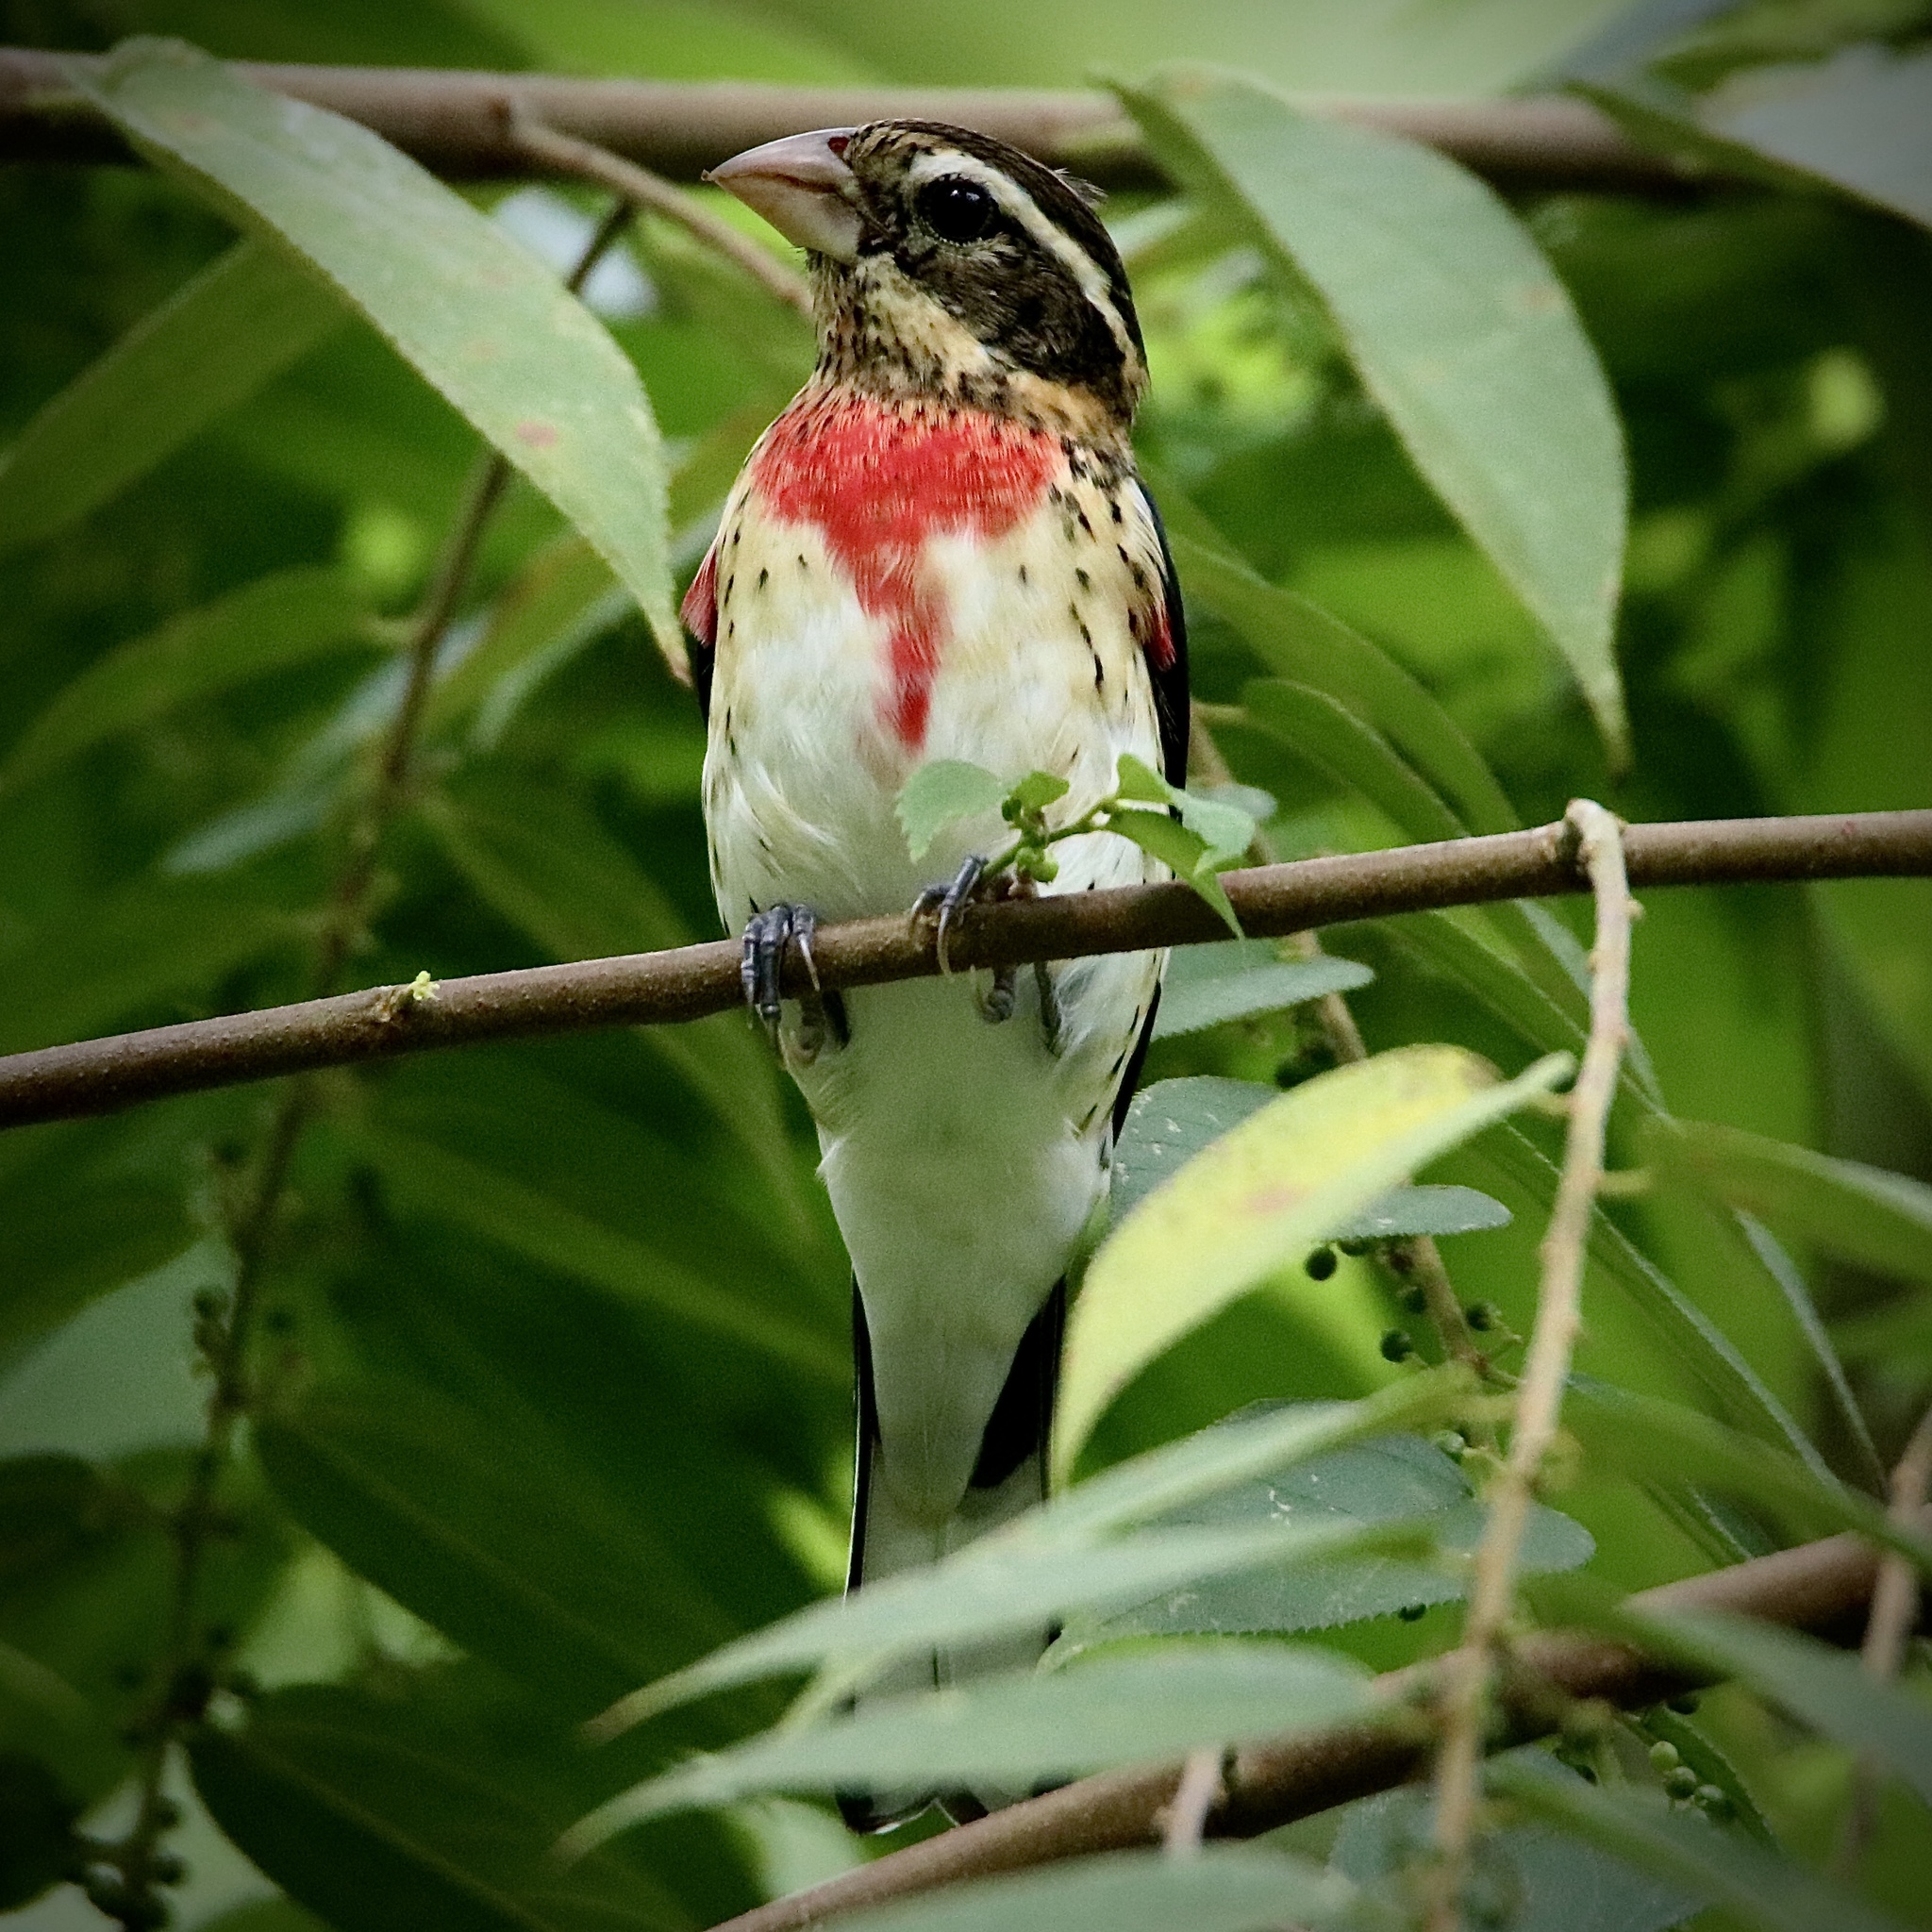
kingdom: Animalia
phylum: Chordata
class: Aves
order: Passeriformes
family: Cardinalidae
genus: Pheucticus
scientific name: Pheucticus ludovicianus
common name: Rose-breasted grosbeak
